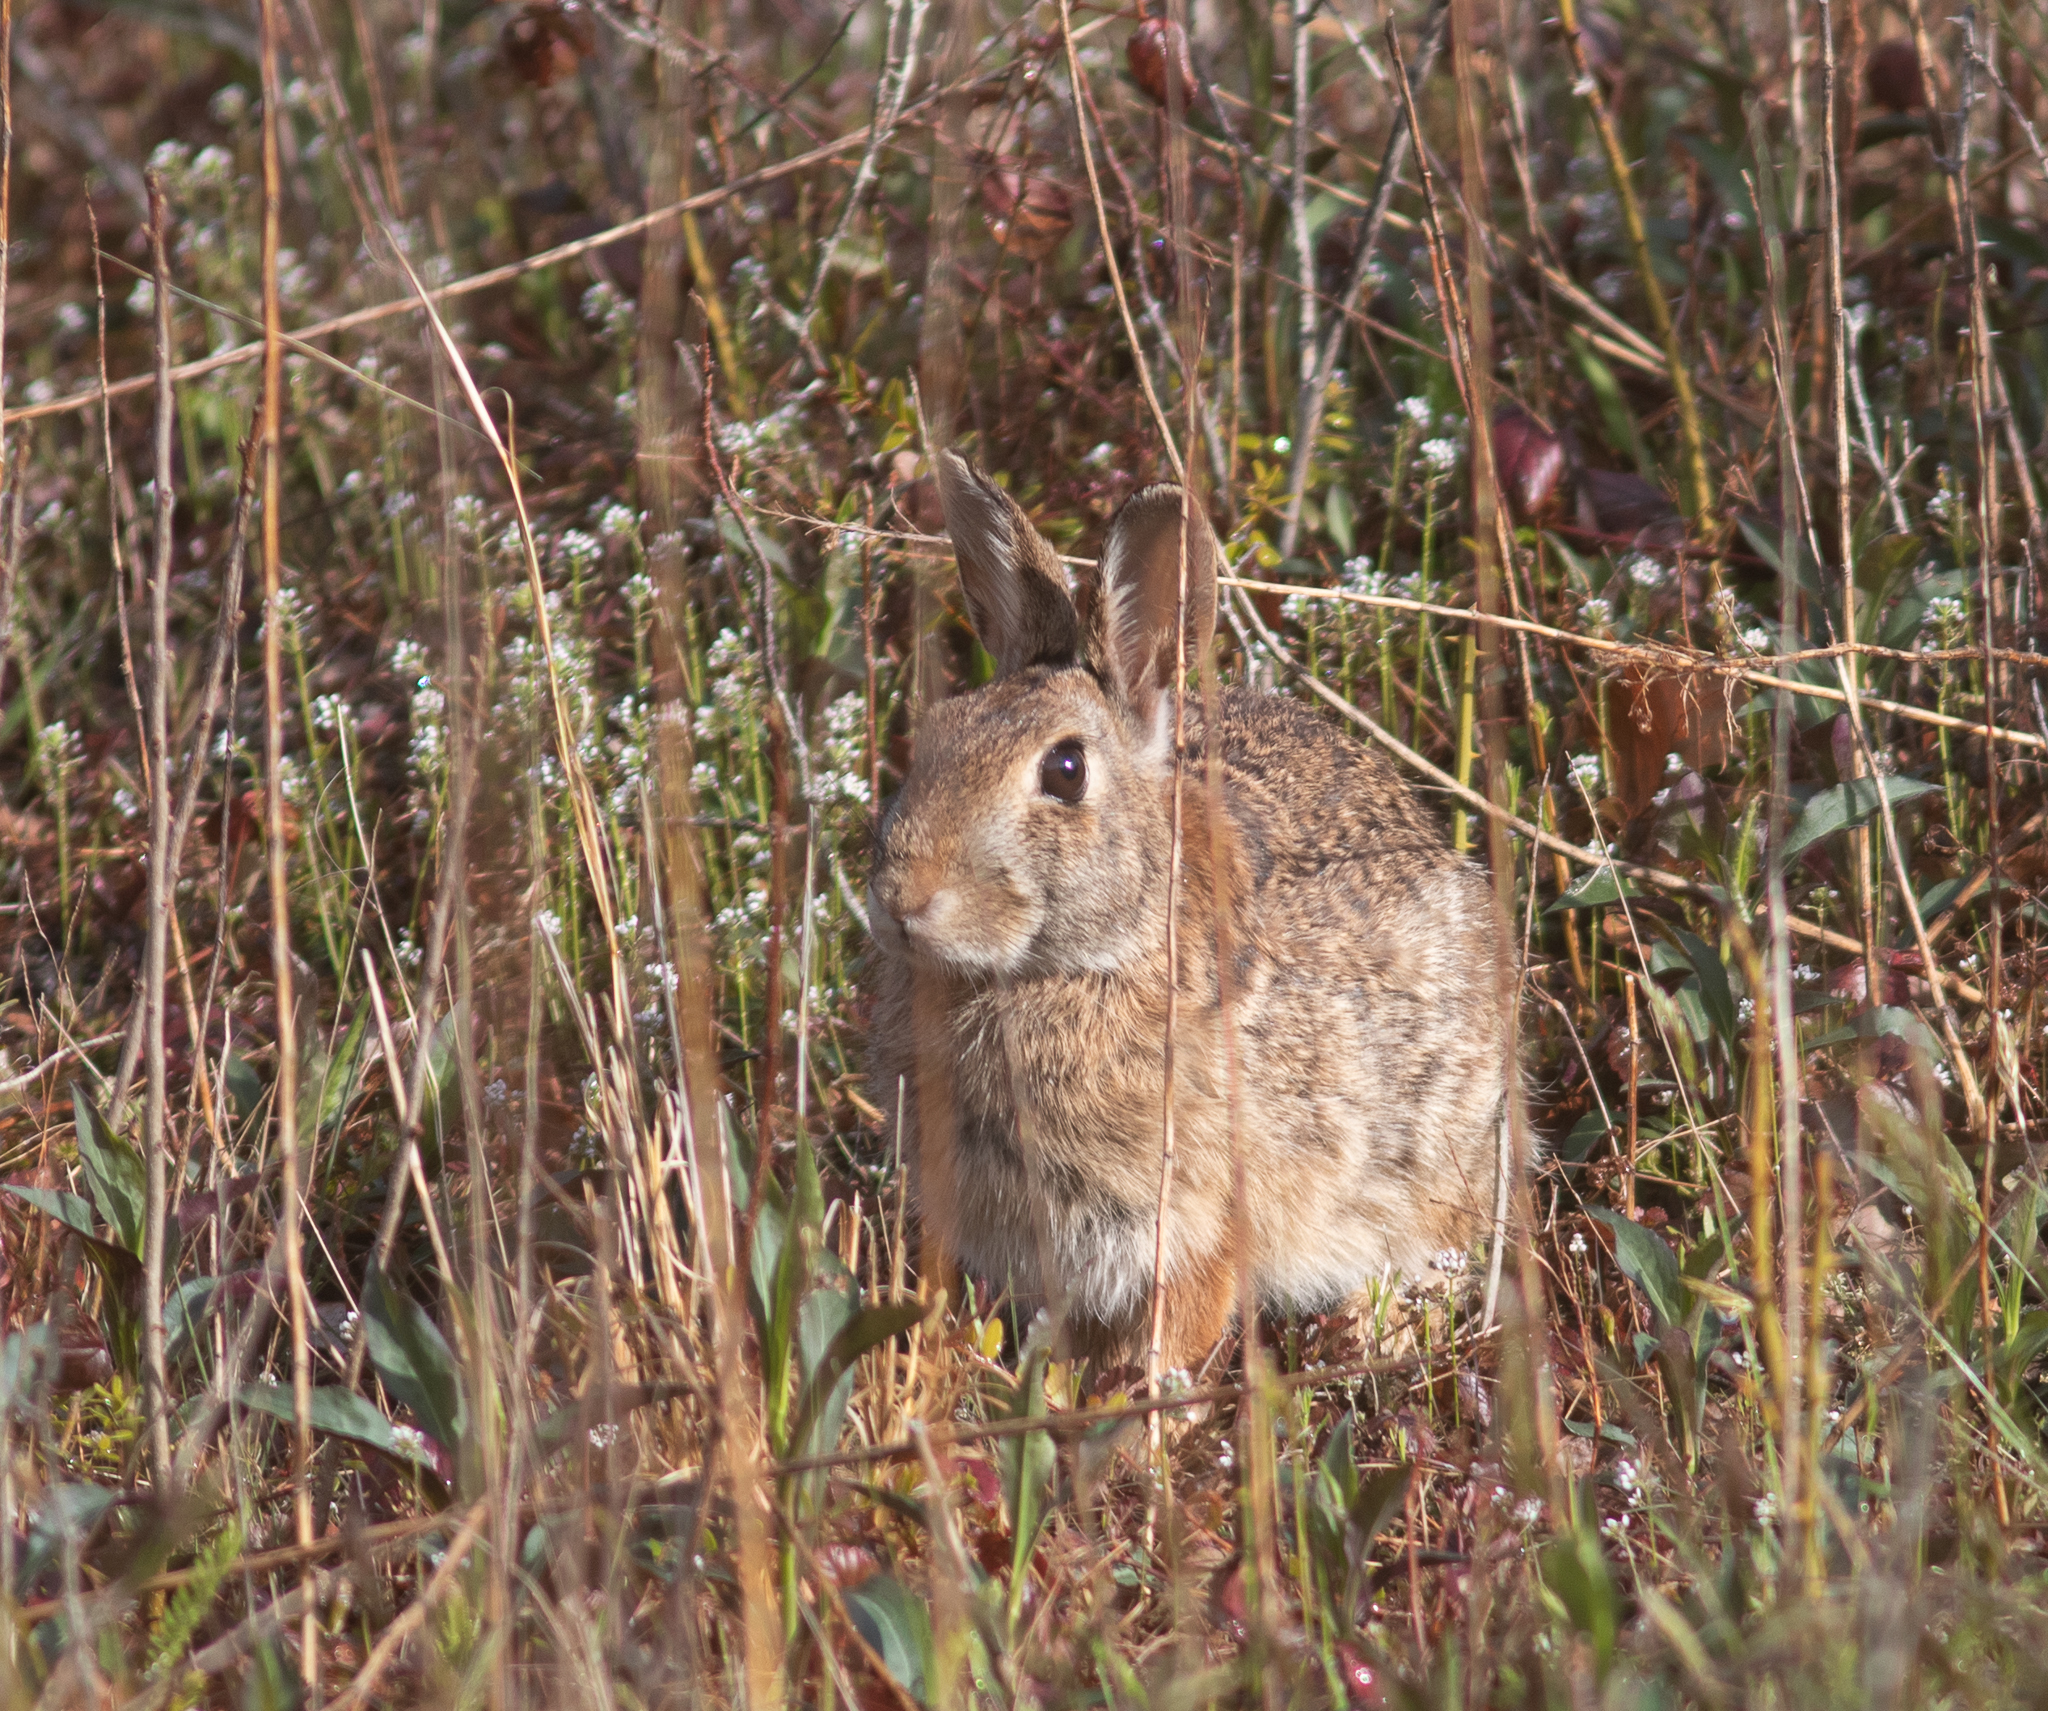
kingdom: Animalia
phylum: Chordata
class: Mammalia
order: Lagomorpha
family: Leporidae
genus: Sylvilagus
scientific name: Sylvilagus floridanus
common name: Eastern cottontail
